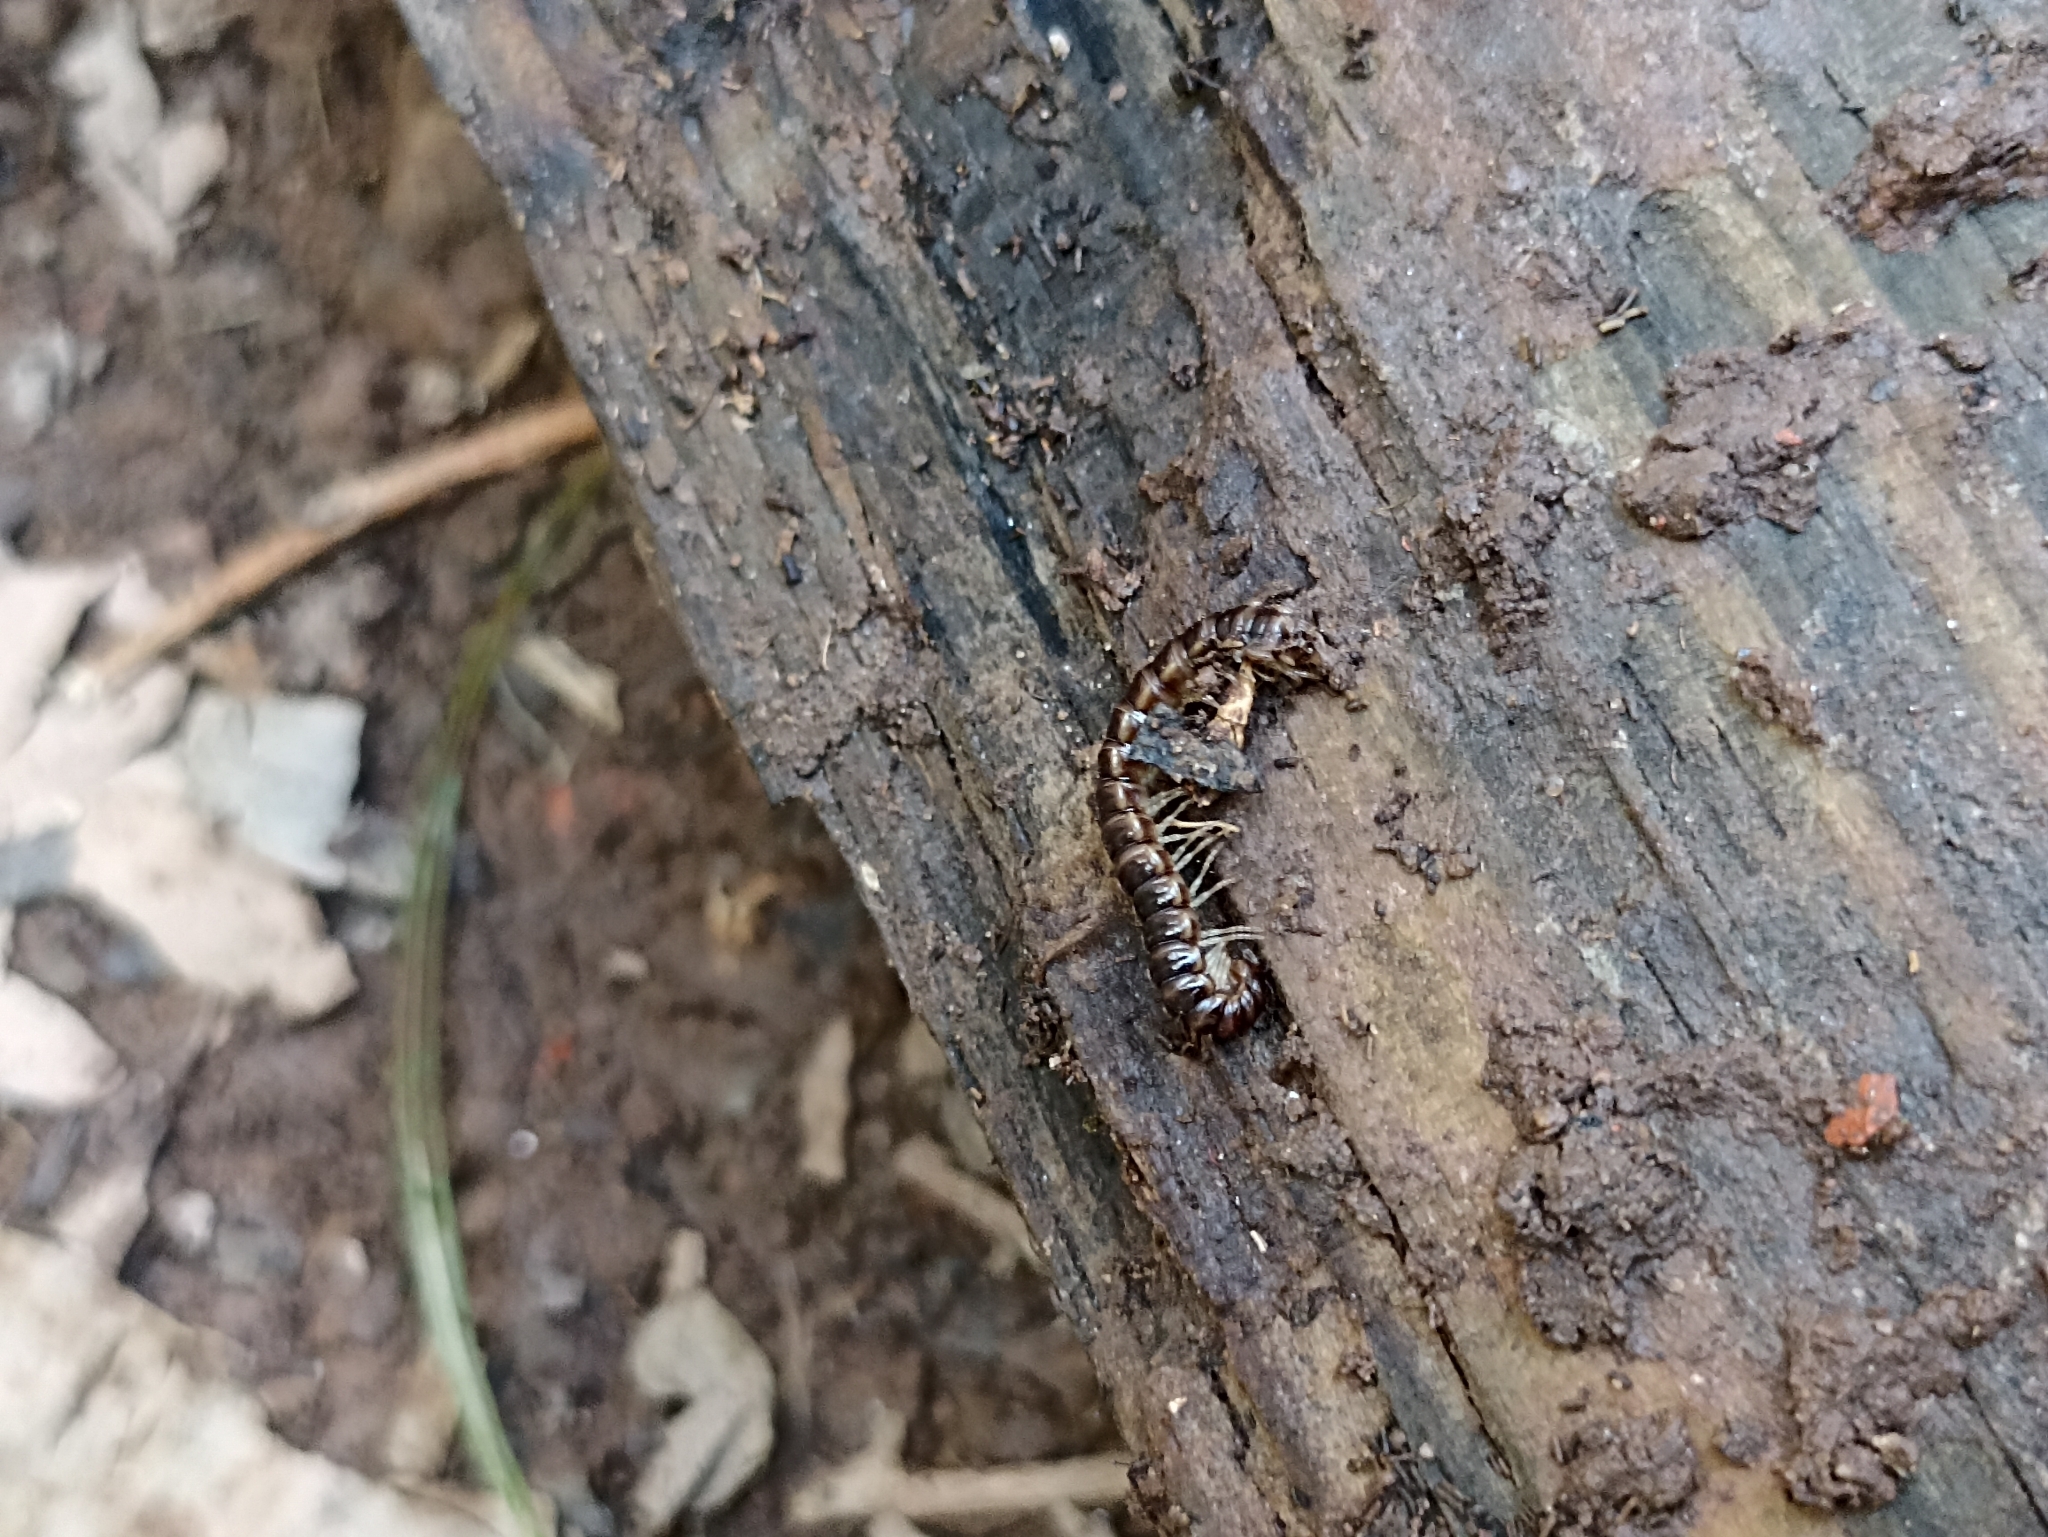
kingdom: Animalia
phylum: Arthropoda
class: Diplopoda
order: Polydesmida
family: Paradoxosomatidae
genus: Oxidus
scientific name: Oxidus gracilis
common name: Greenhouse millipede
